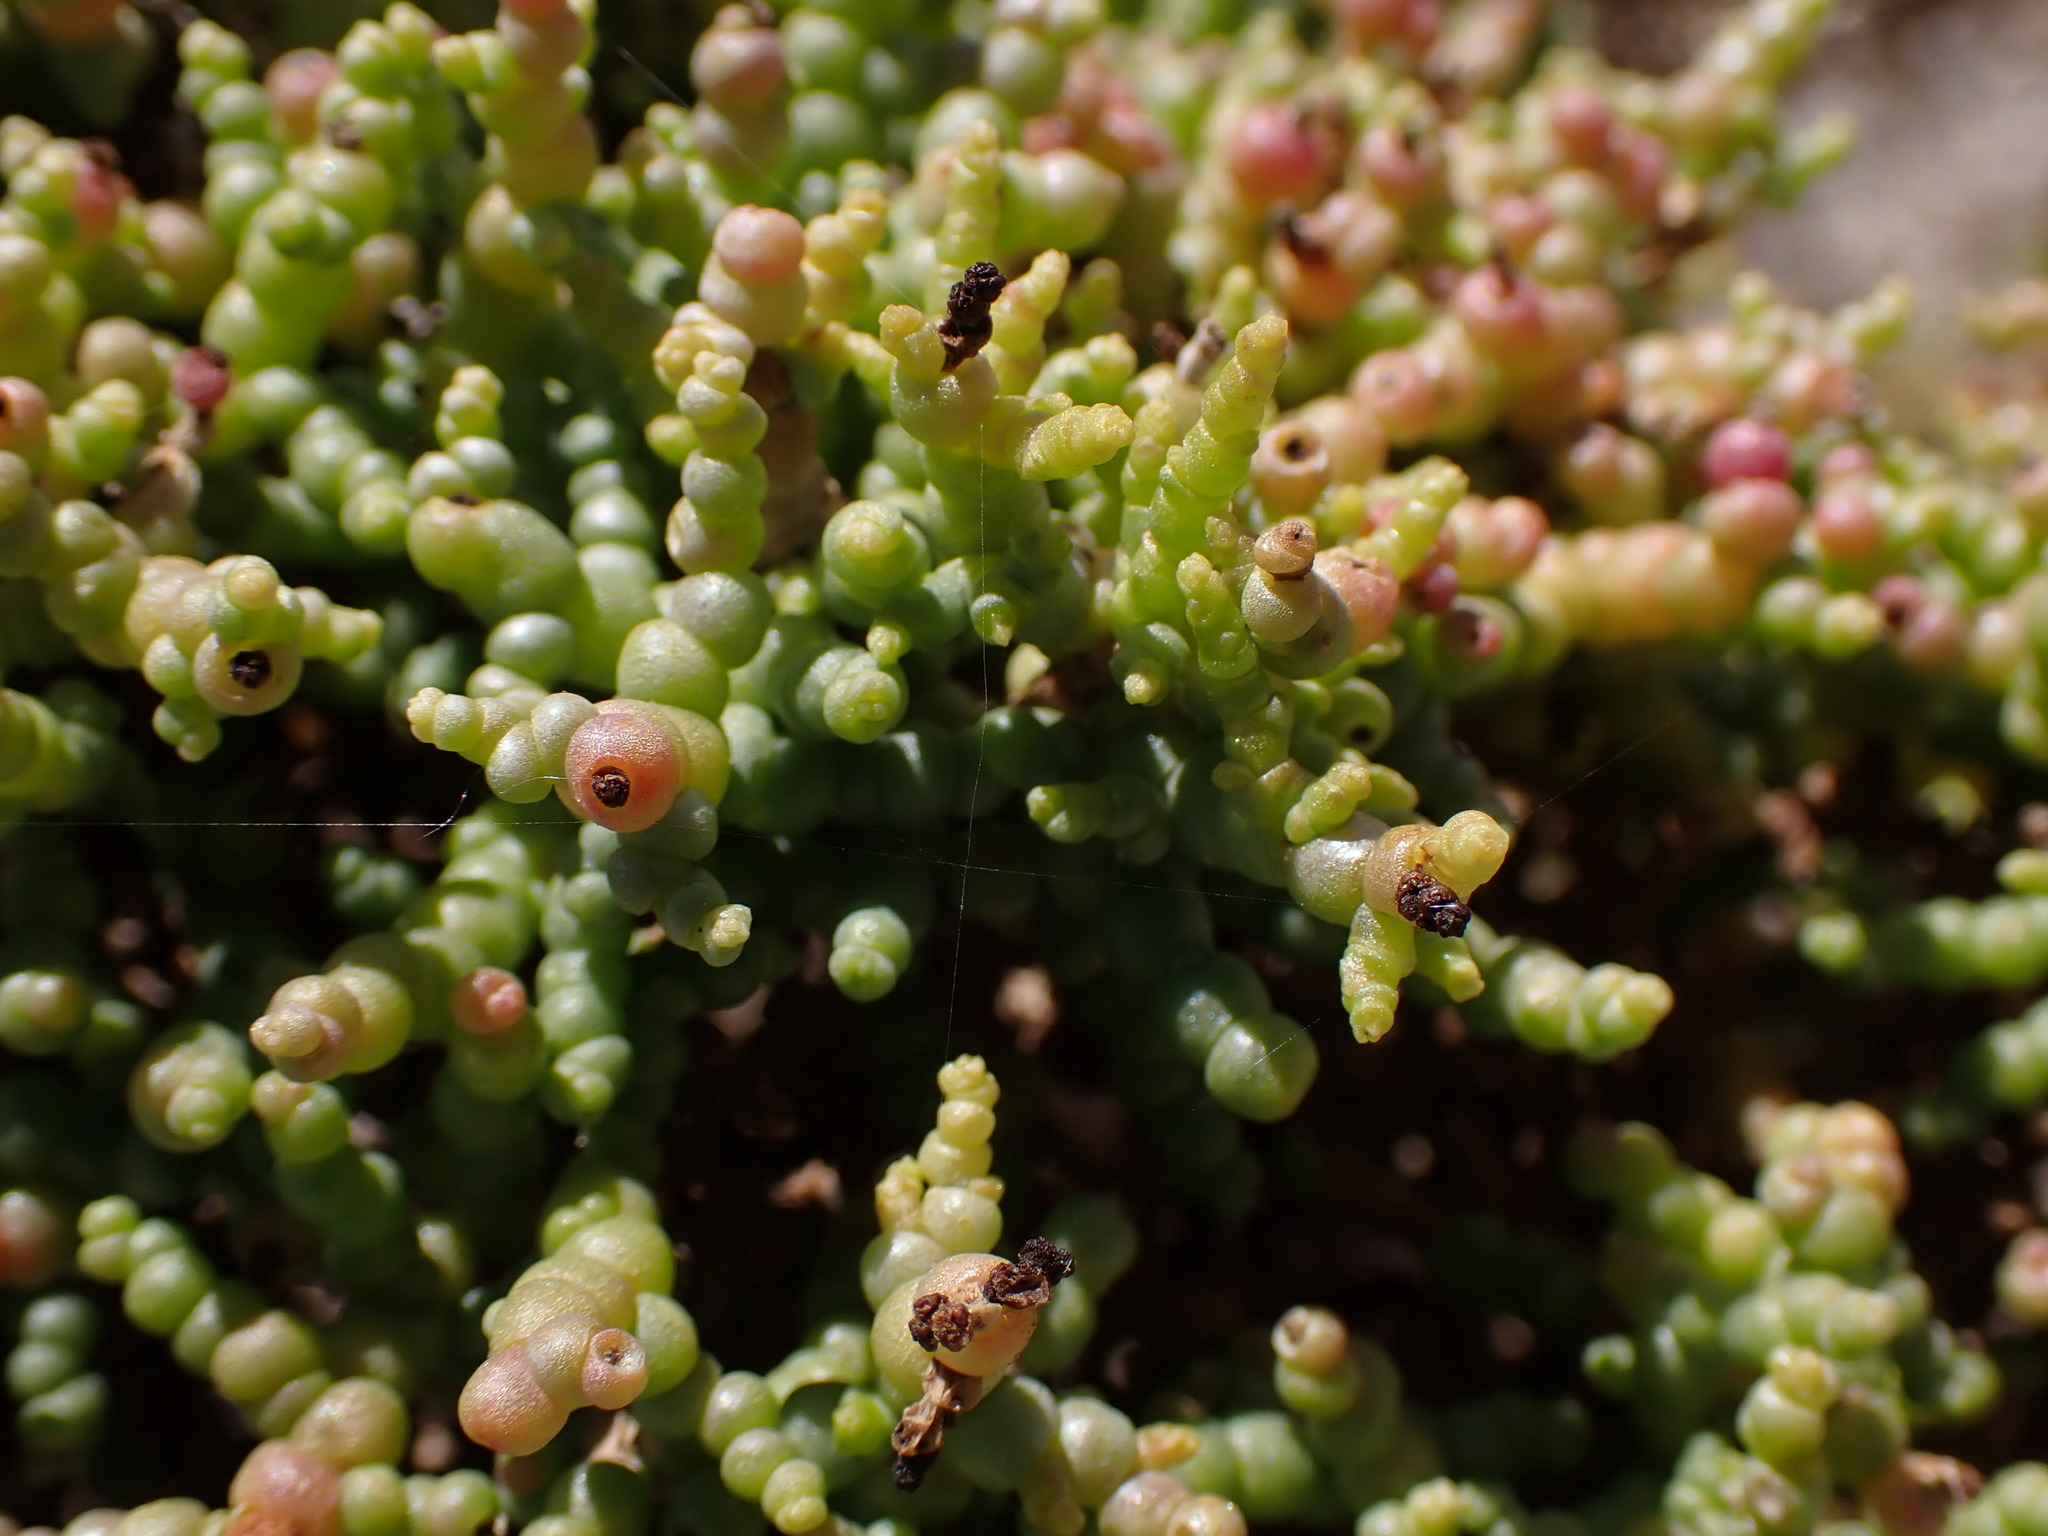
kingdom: Plantae
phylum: Tracheophyta
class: Magnoliopsida
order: Caryophyllales
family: Amaranthaceae
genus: Allenrolfea
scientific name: Allenrolfea occidentalis
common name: Iodine-bush
